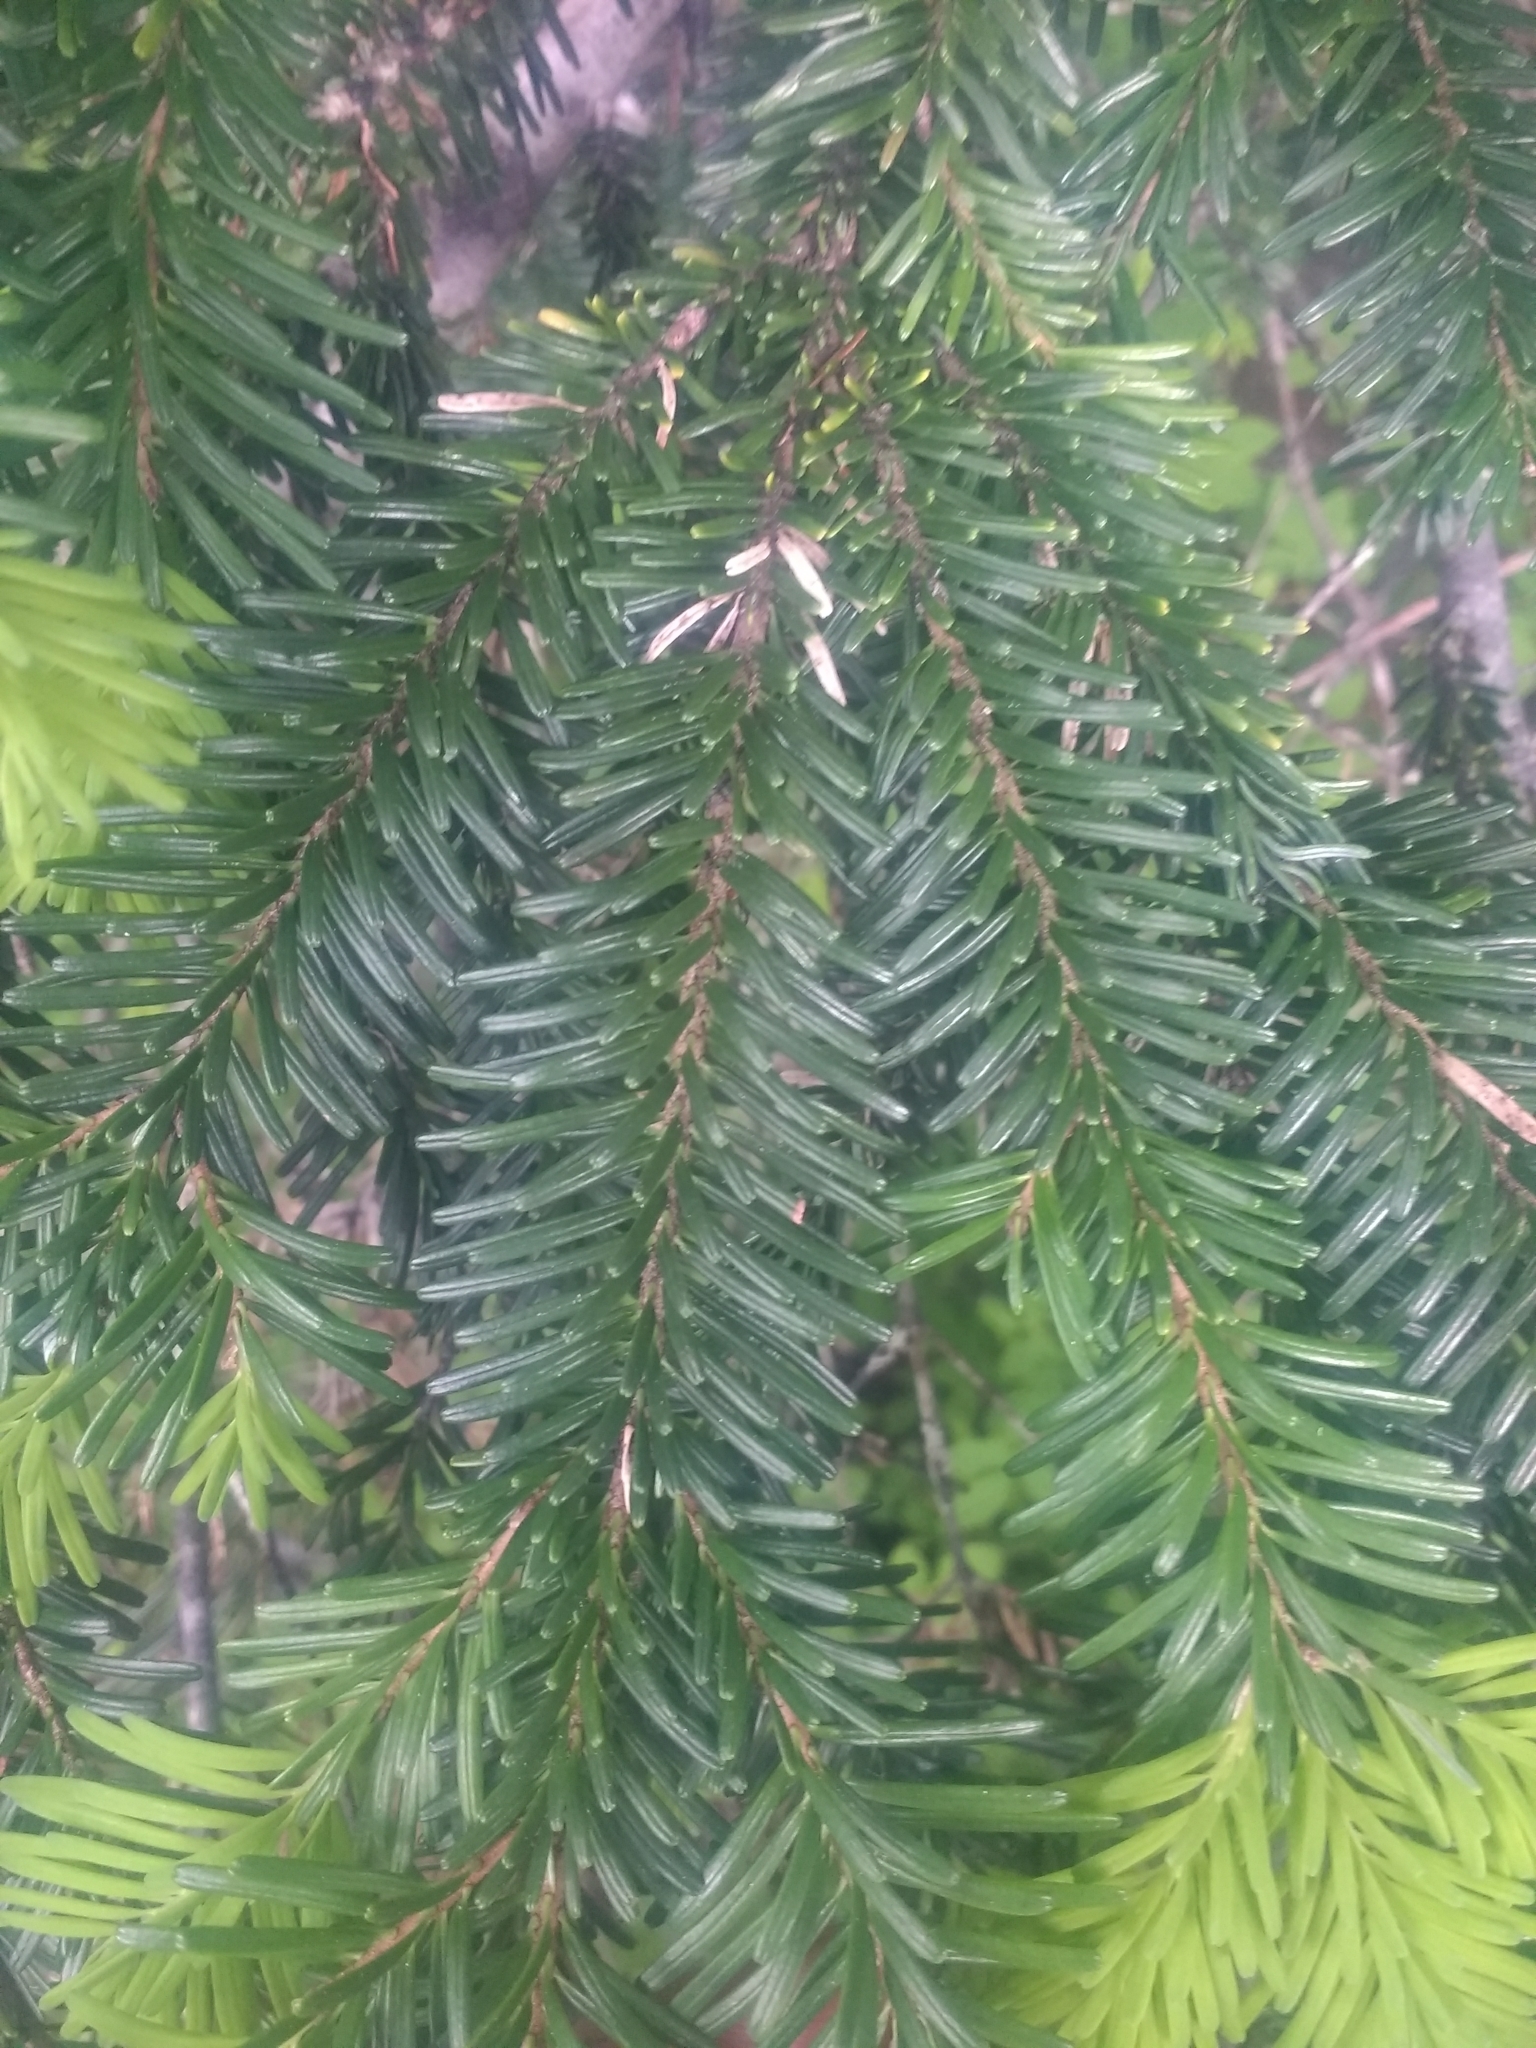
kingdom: Plantae
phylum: Tracheophyta
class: Pinopsida
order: Pinales
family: Pinaceae
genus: Abies
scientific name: Abies amabilis
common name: Pacific silver fir
